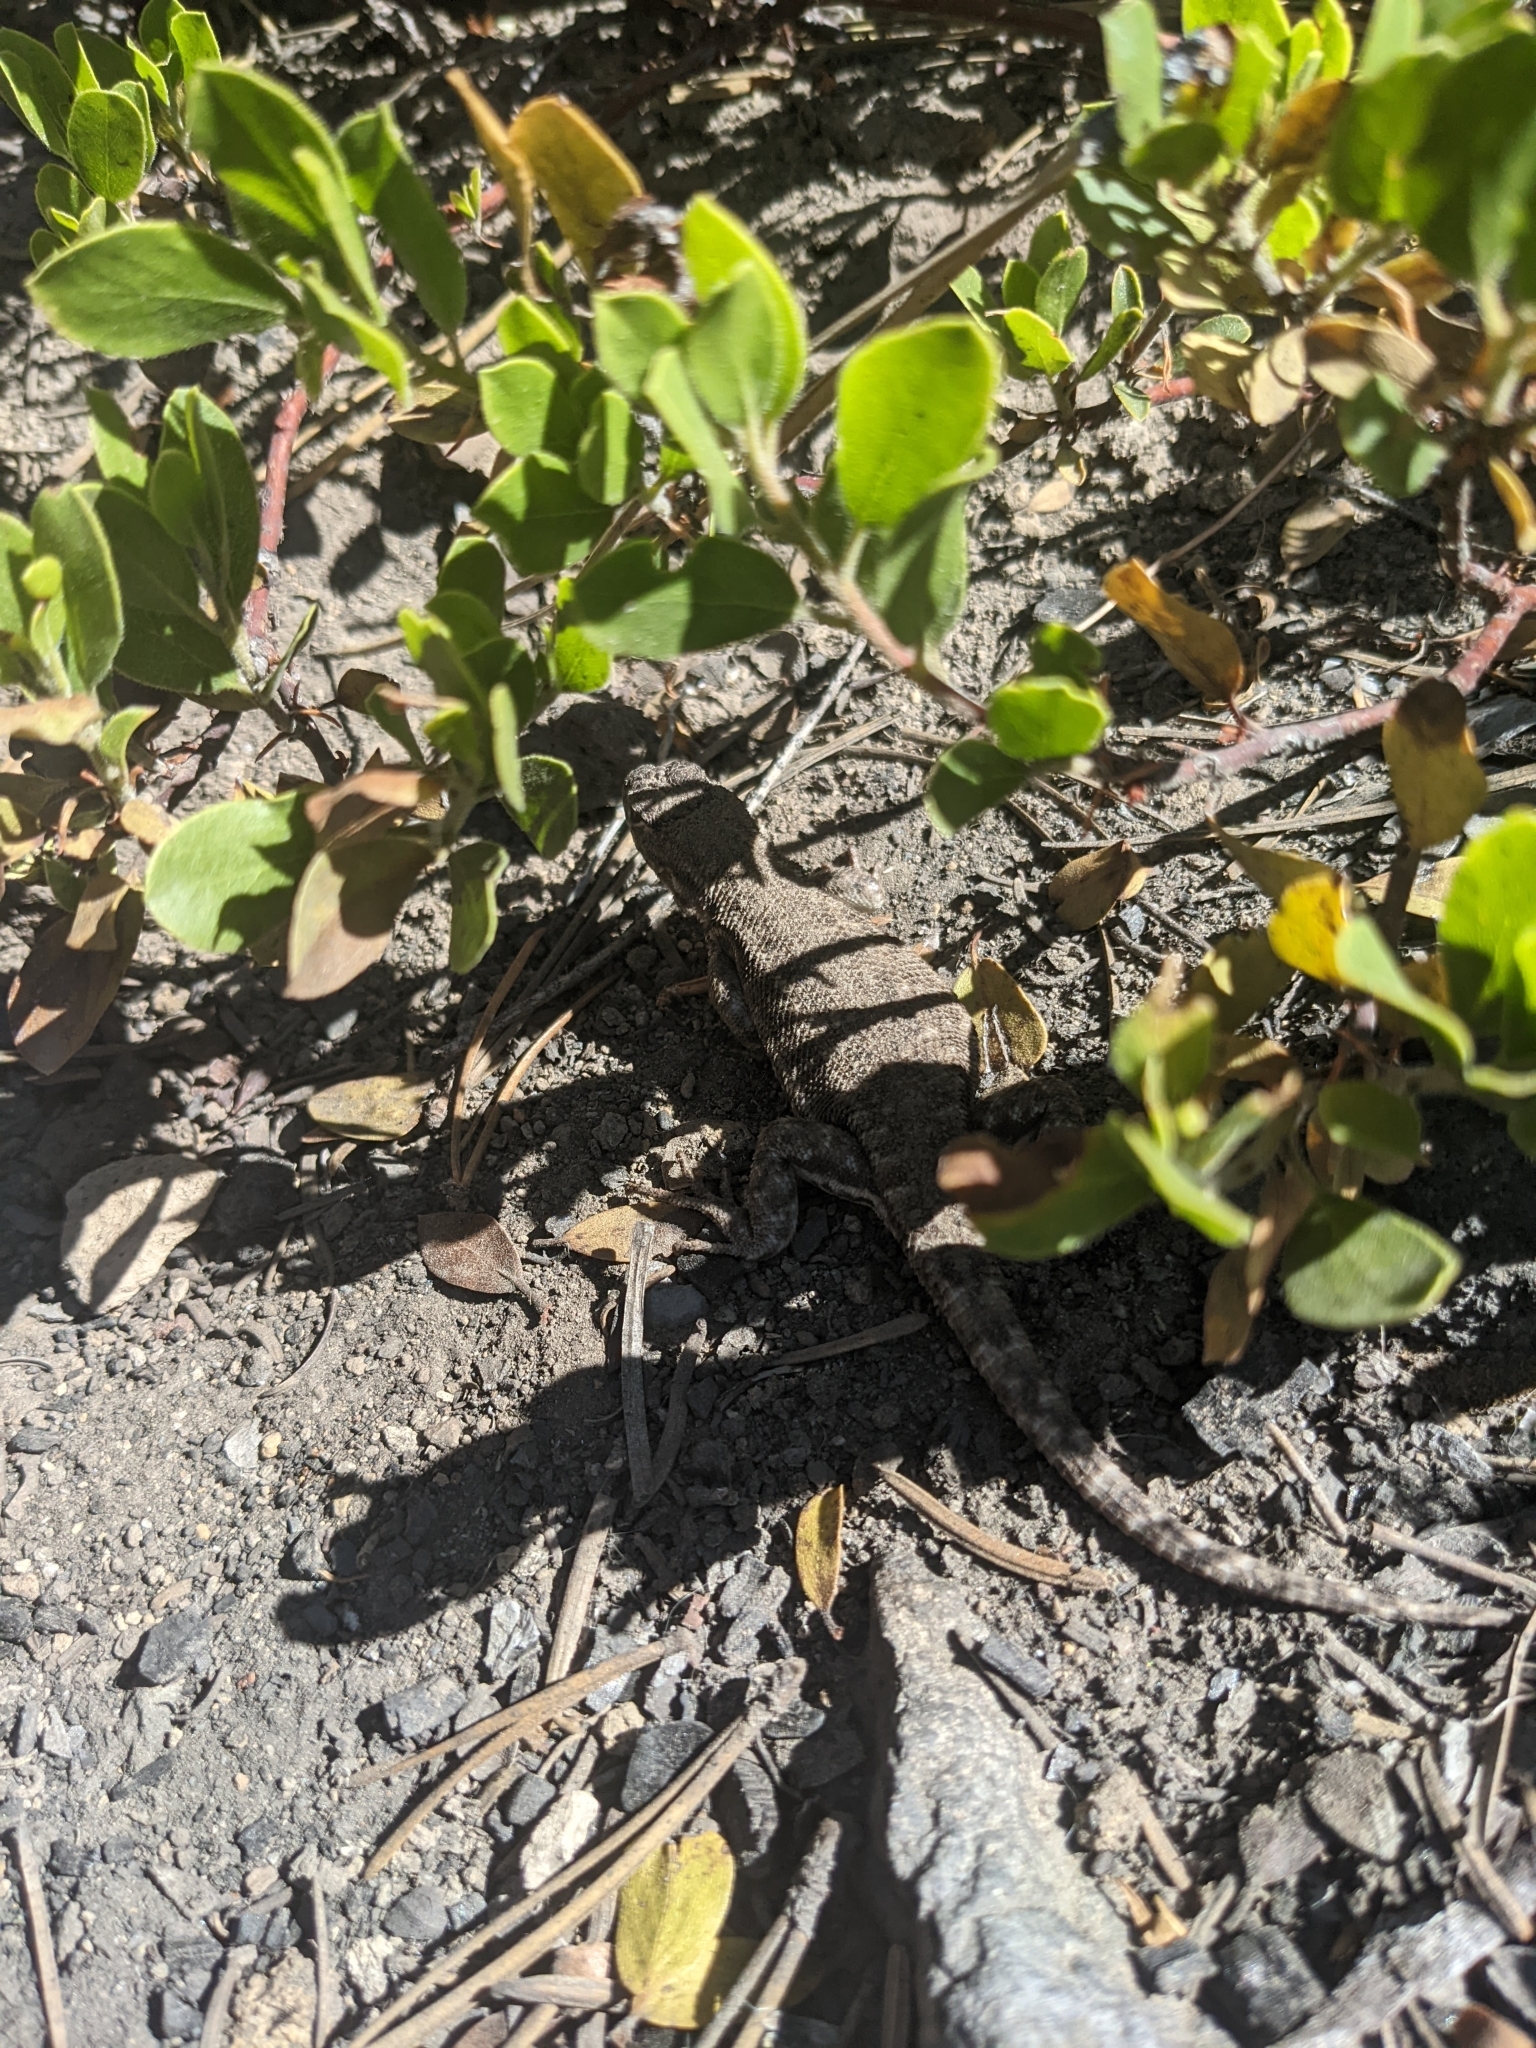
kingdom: Animalia
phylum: Chordata
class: Squamata
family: Phrynosomatidae
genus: Sceloporus
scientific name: Sceloporus graciosus
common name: Sagebrush lizard
